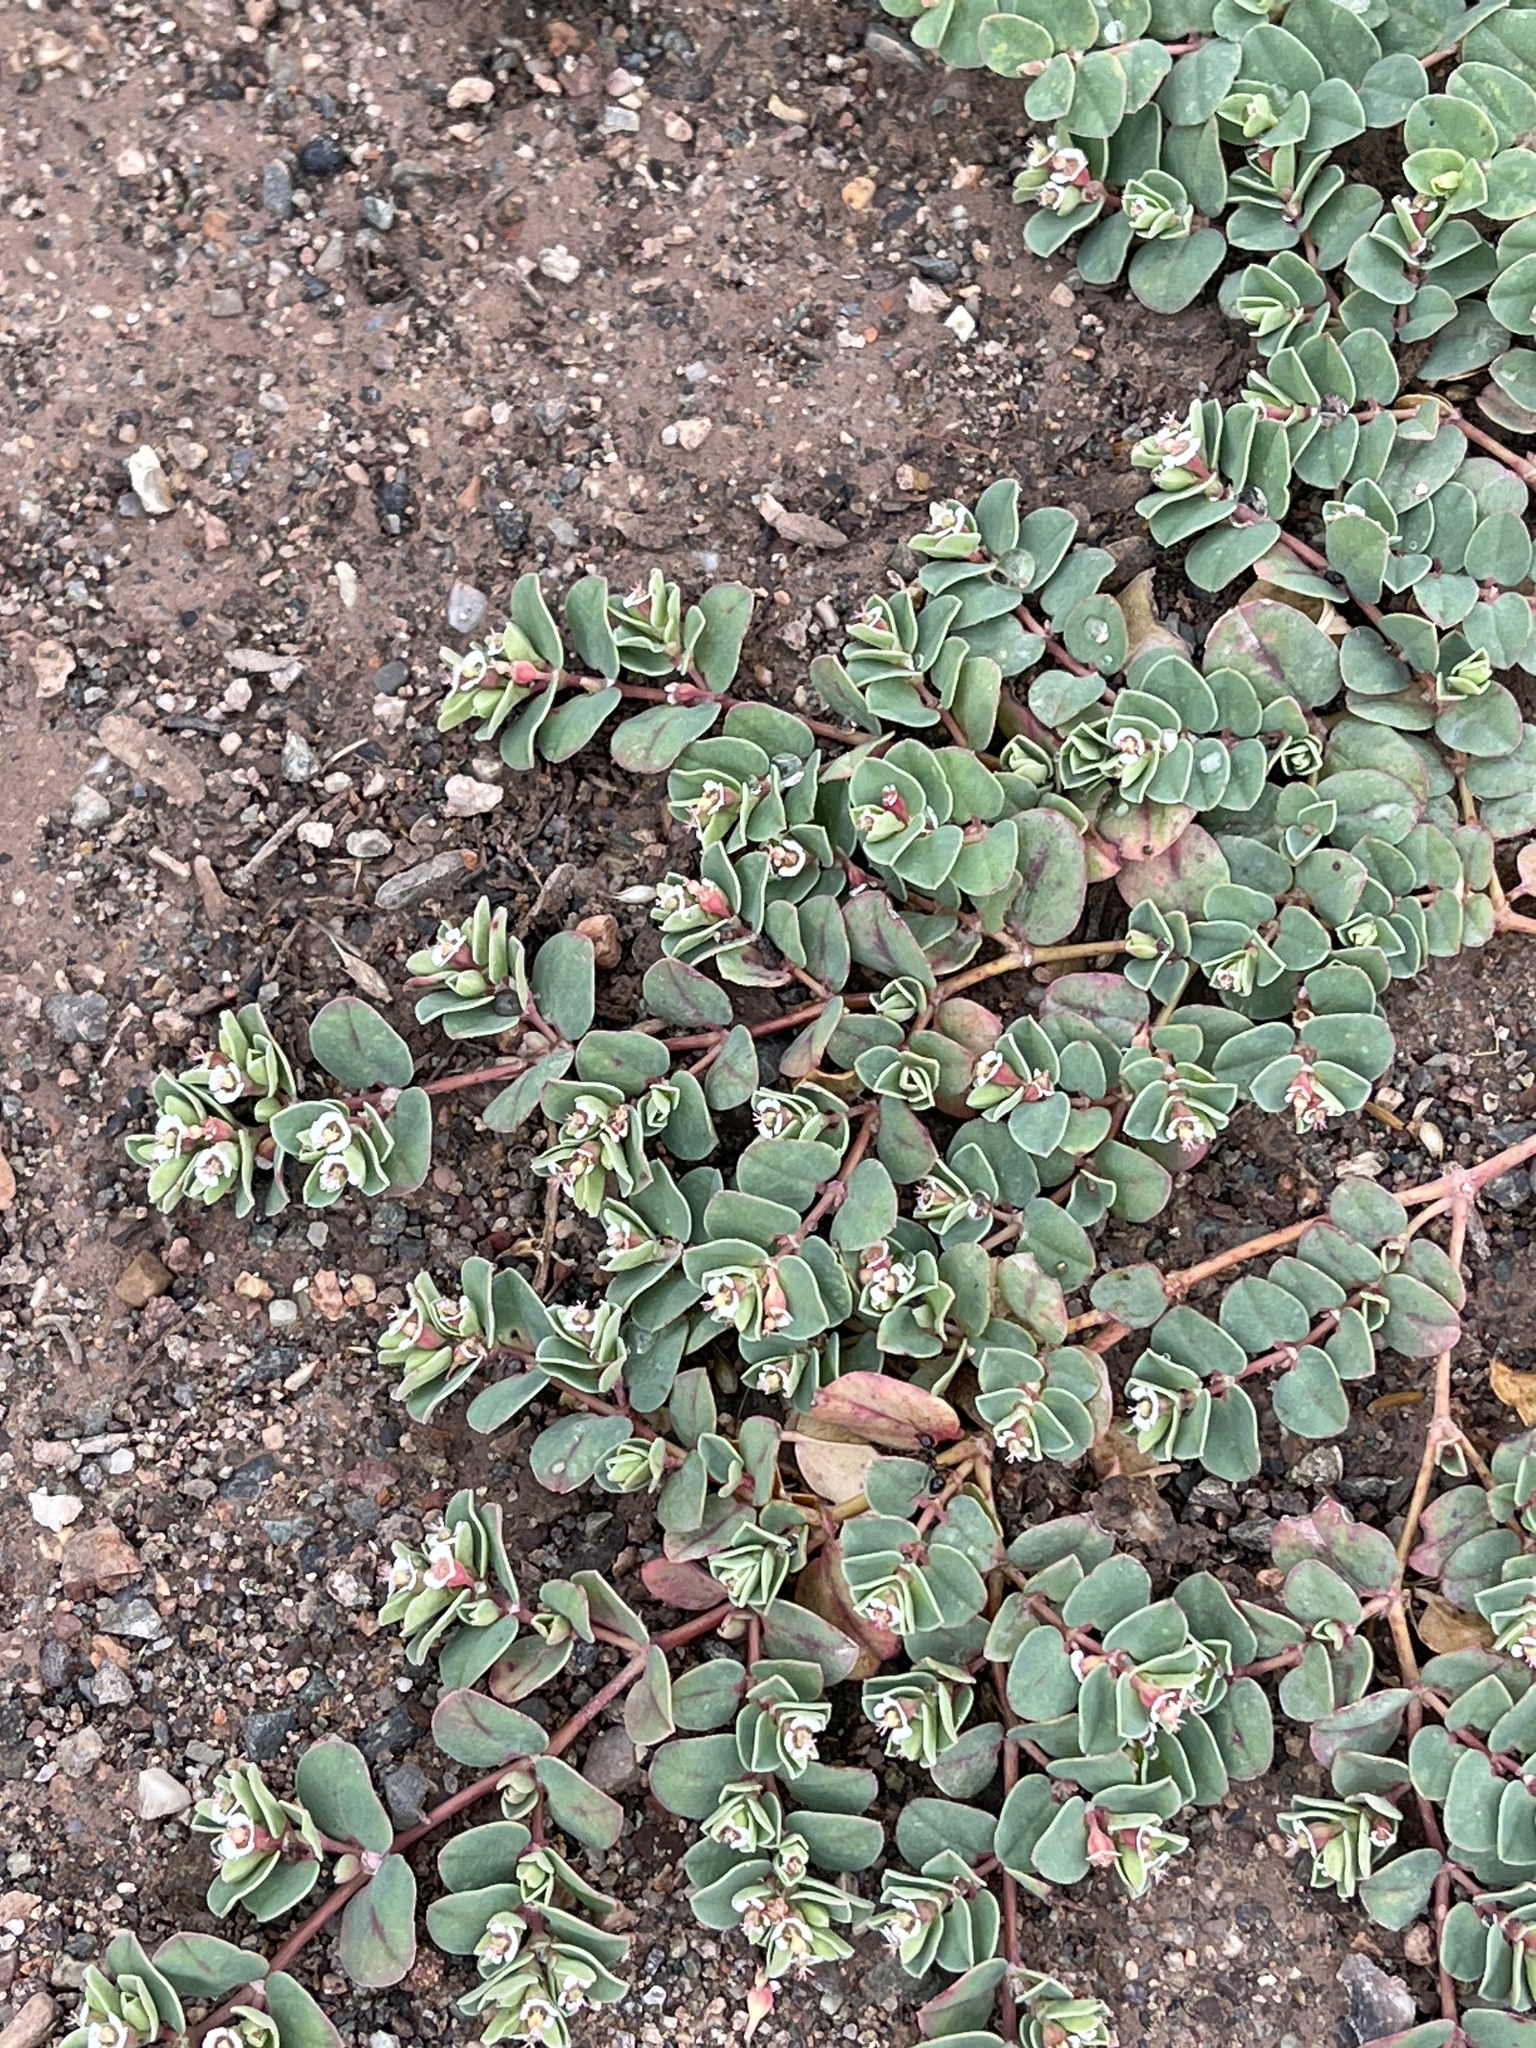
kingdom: Plantae
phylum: Tracheophyta
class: Magnoliopsida
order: Malpighiales
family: Euphorbiaceae
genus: Euphorbia
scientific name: Euphorbia albomarginata
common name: Whitemargin sandmat
